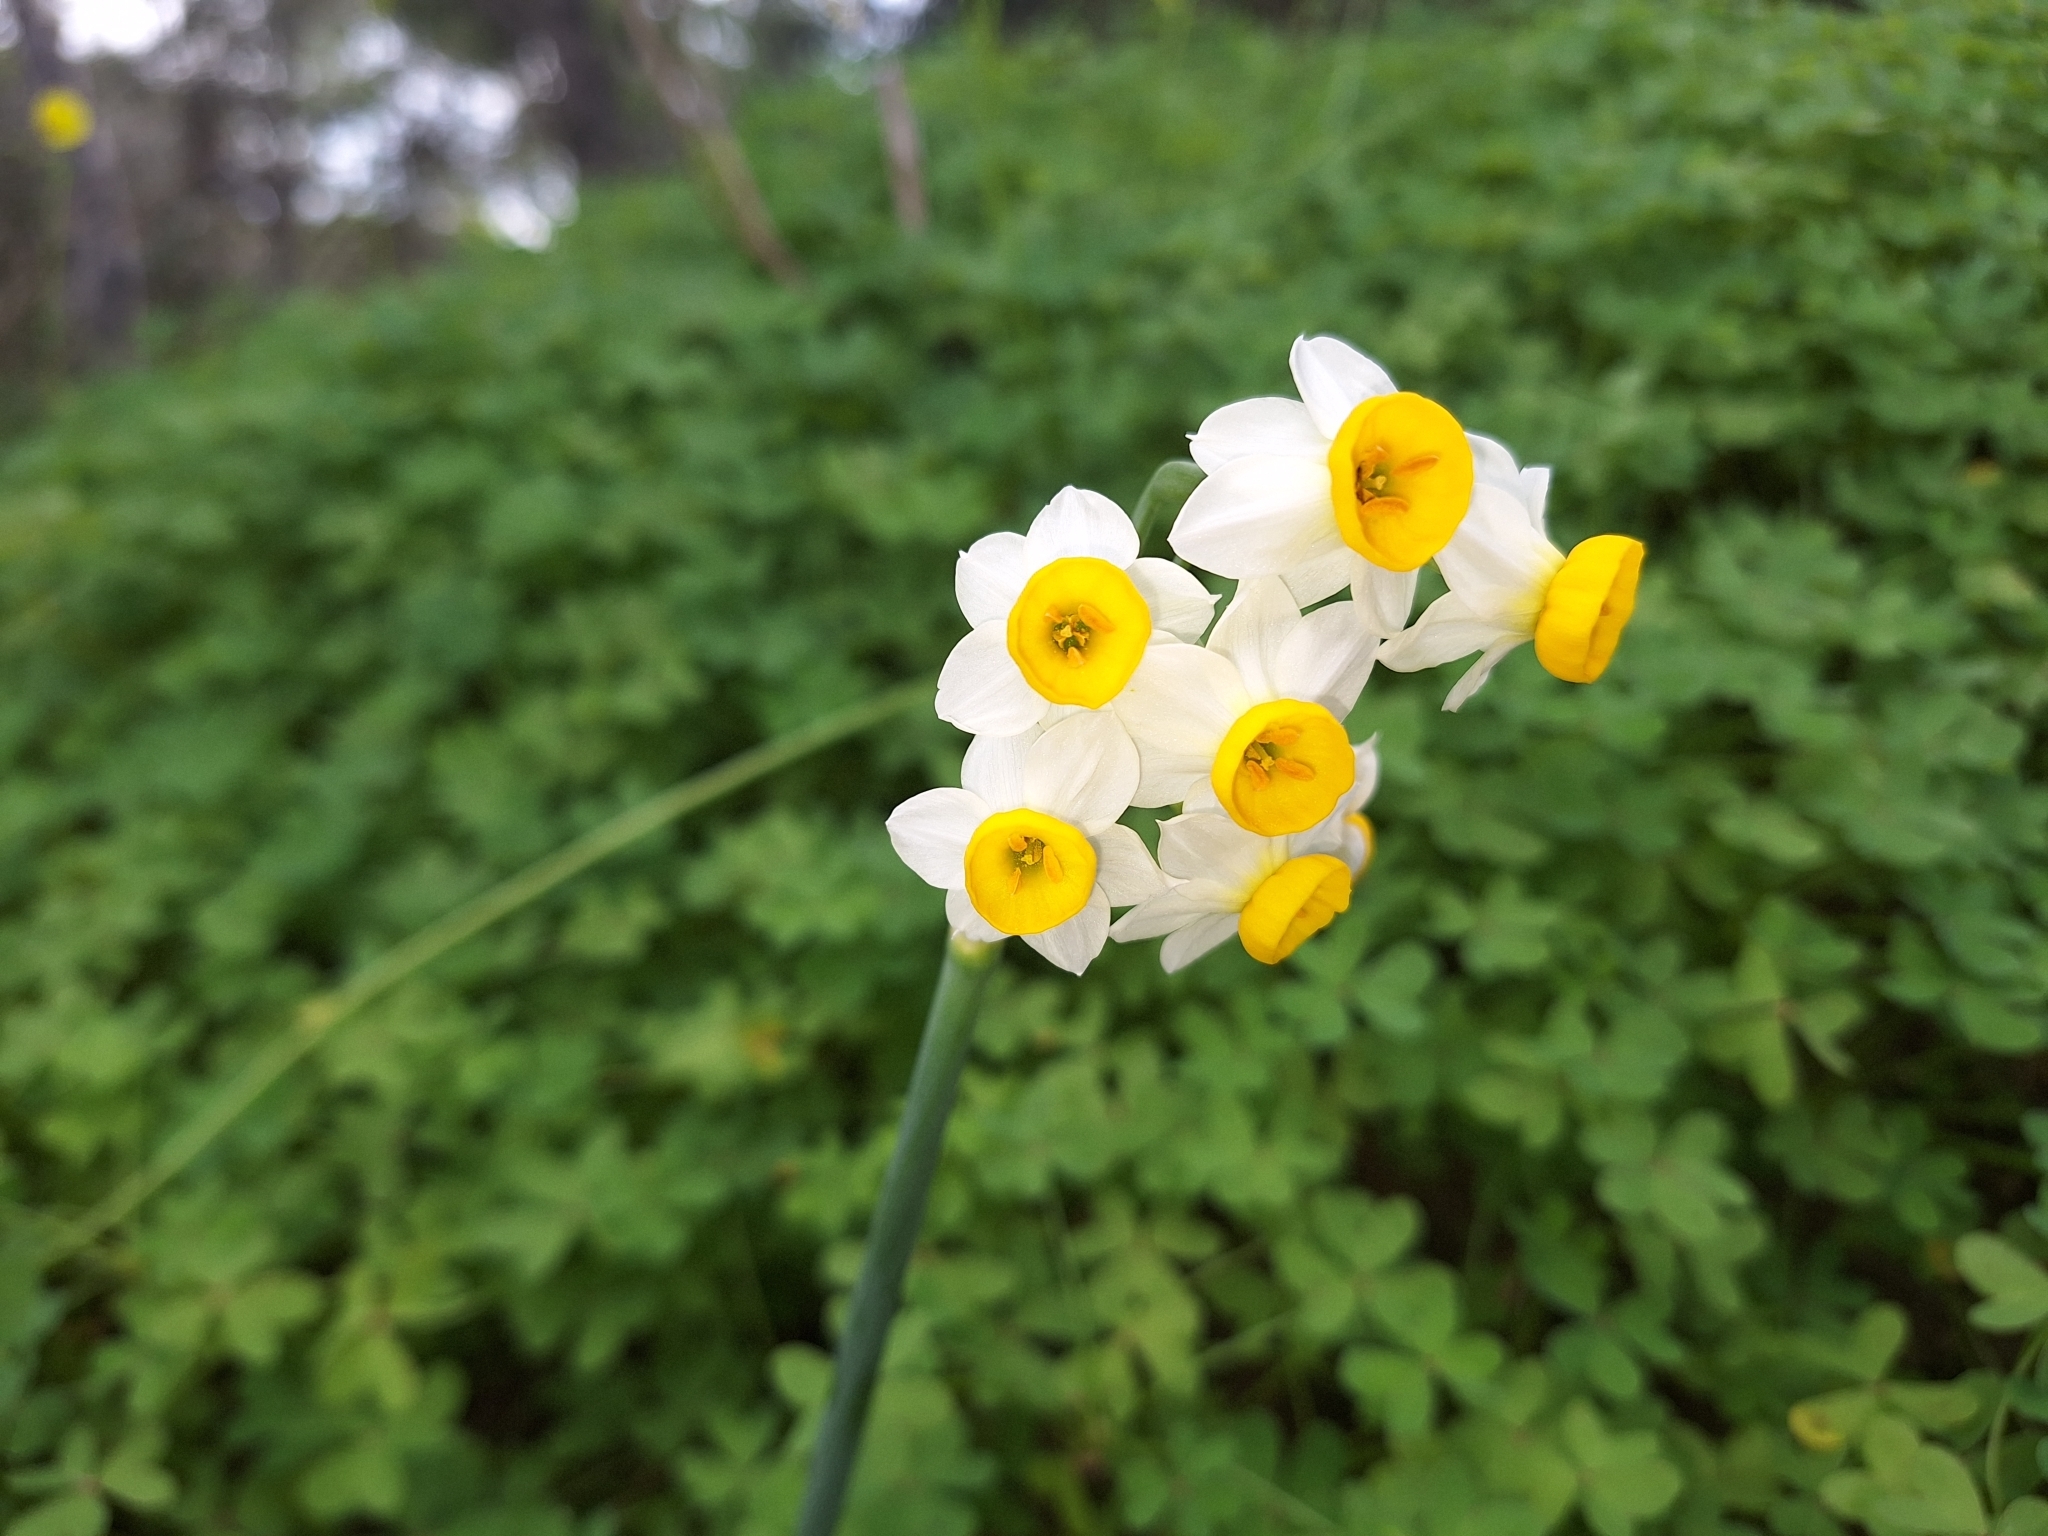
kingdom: Plantae
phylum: Tracheophyta
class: Liliopsida
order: Asparagales
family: Amaryllidaceae
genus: Narcissus
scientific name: Narcissus tazetta
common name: Bunch-flowered daffodil
